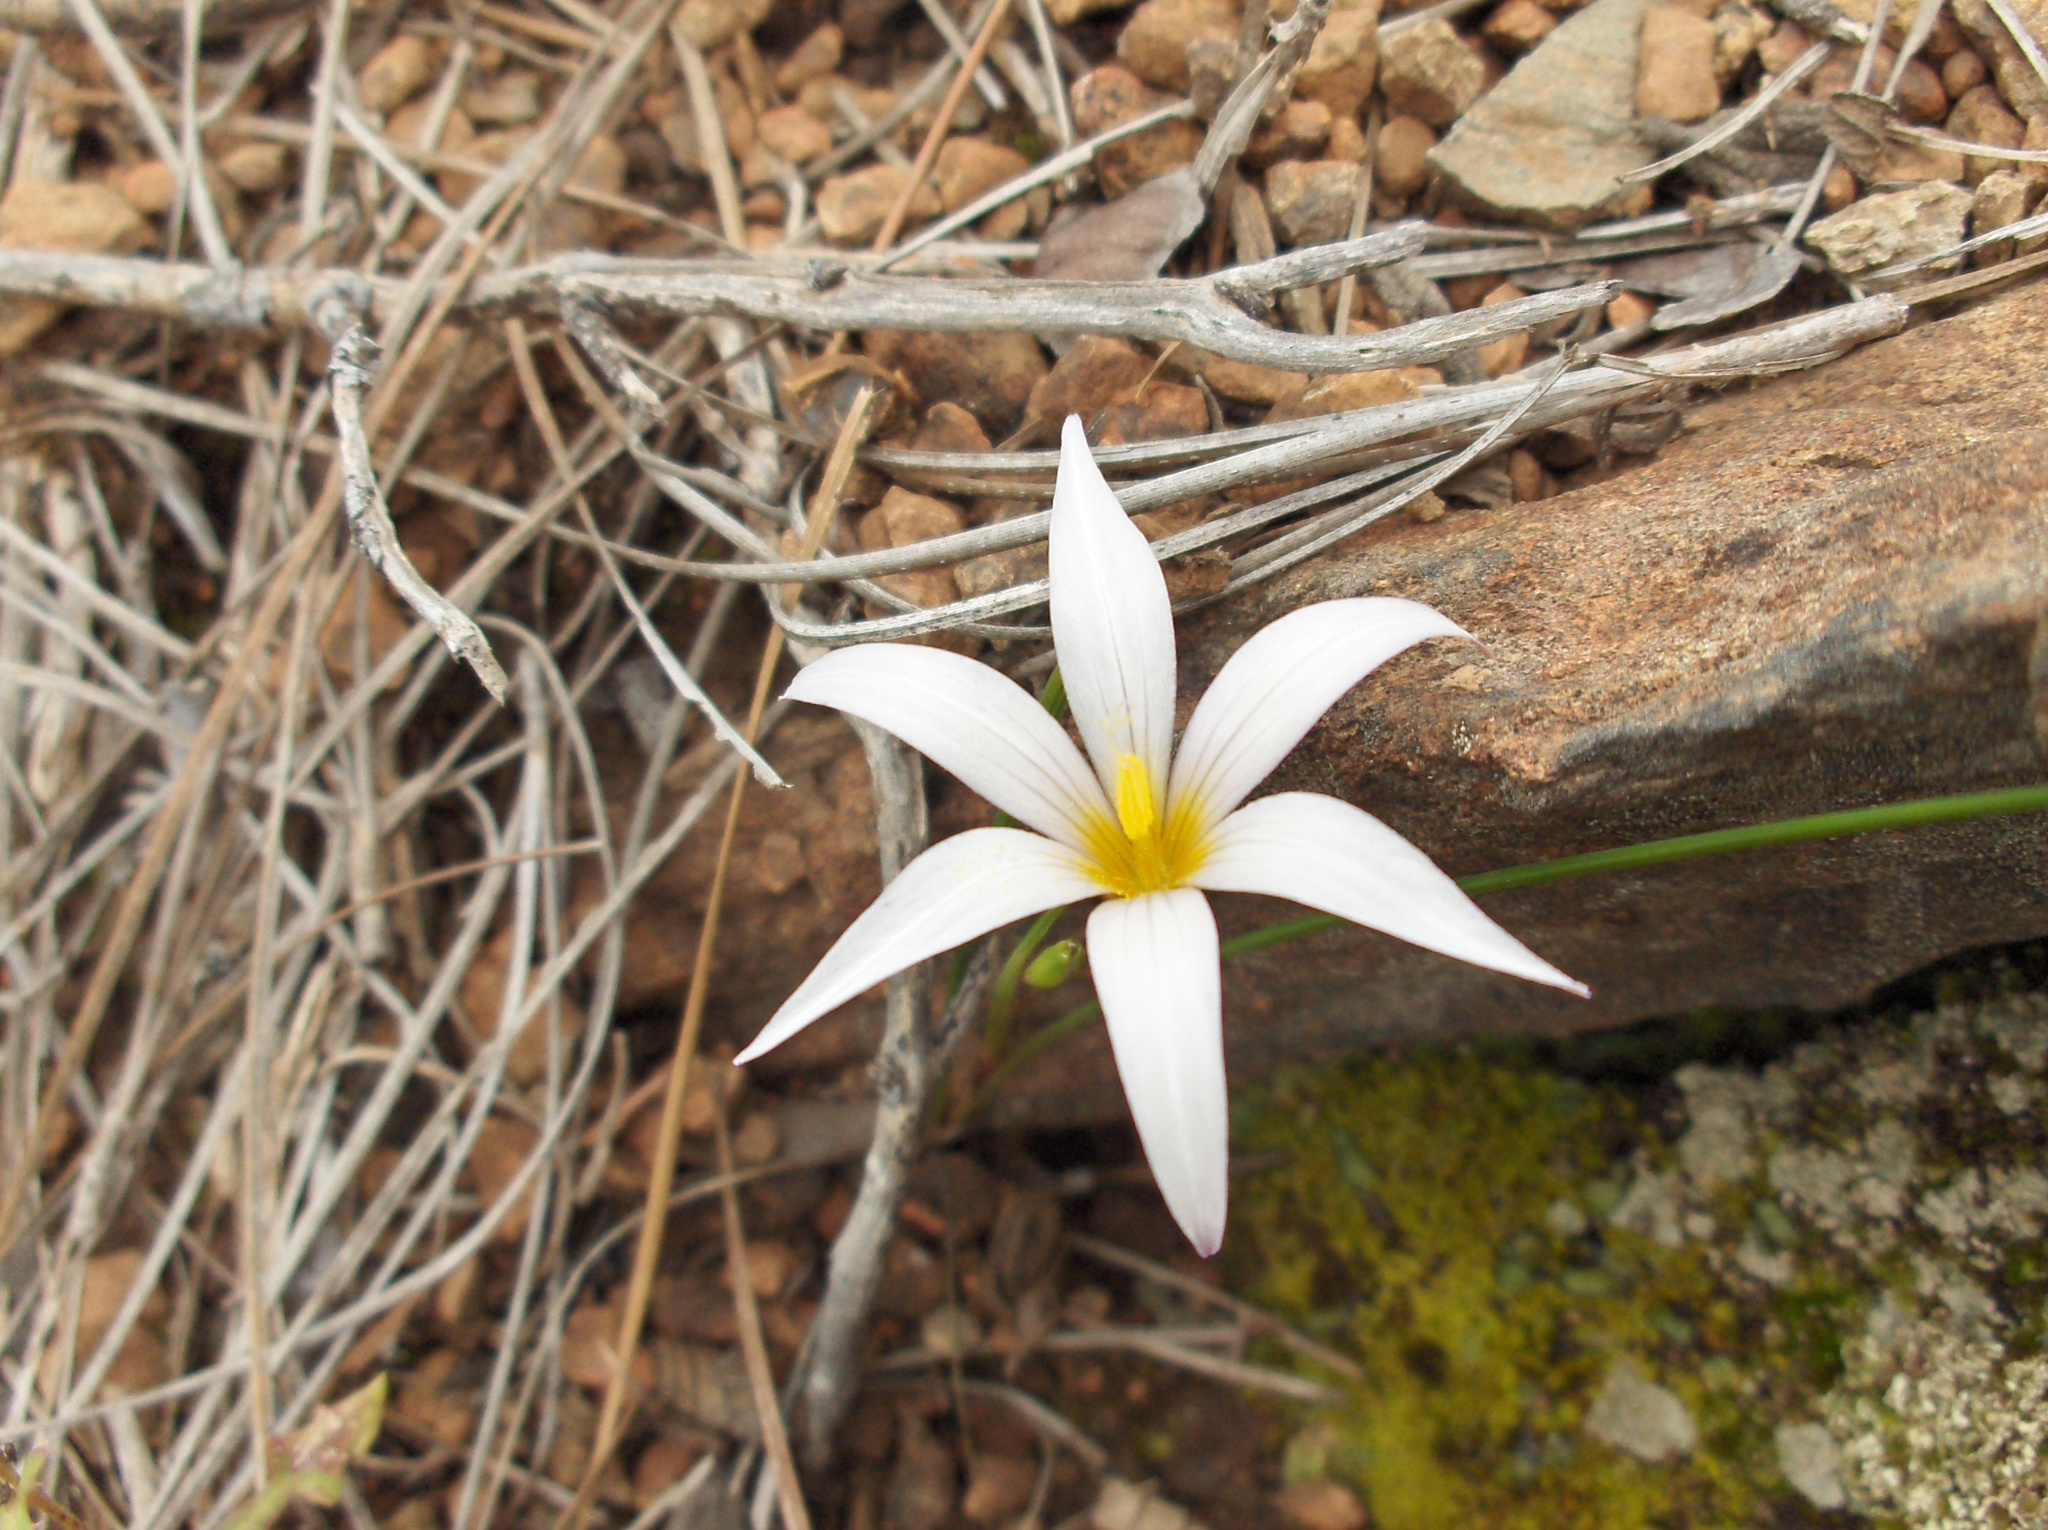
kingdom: Plantae
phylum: Tracheophyta
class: Liliopsida
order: Asparagales
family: Iridaceae
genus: Romulea
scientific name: Romulea columnae
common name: Sand-crocus
